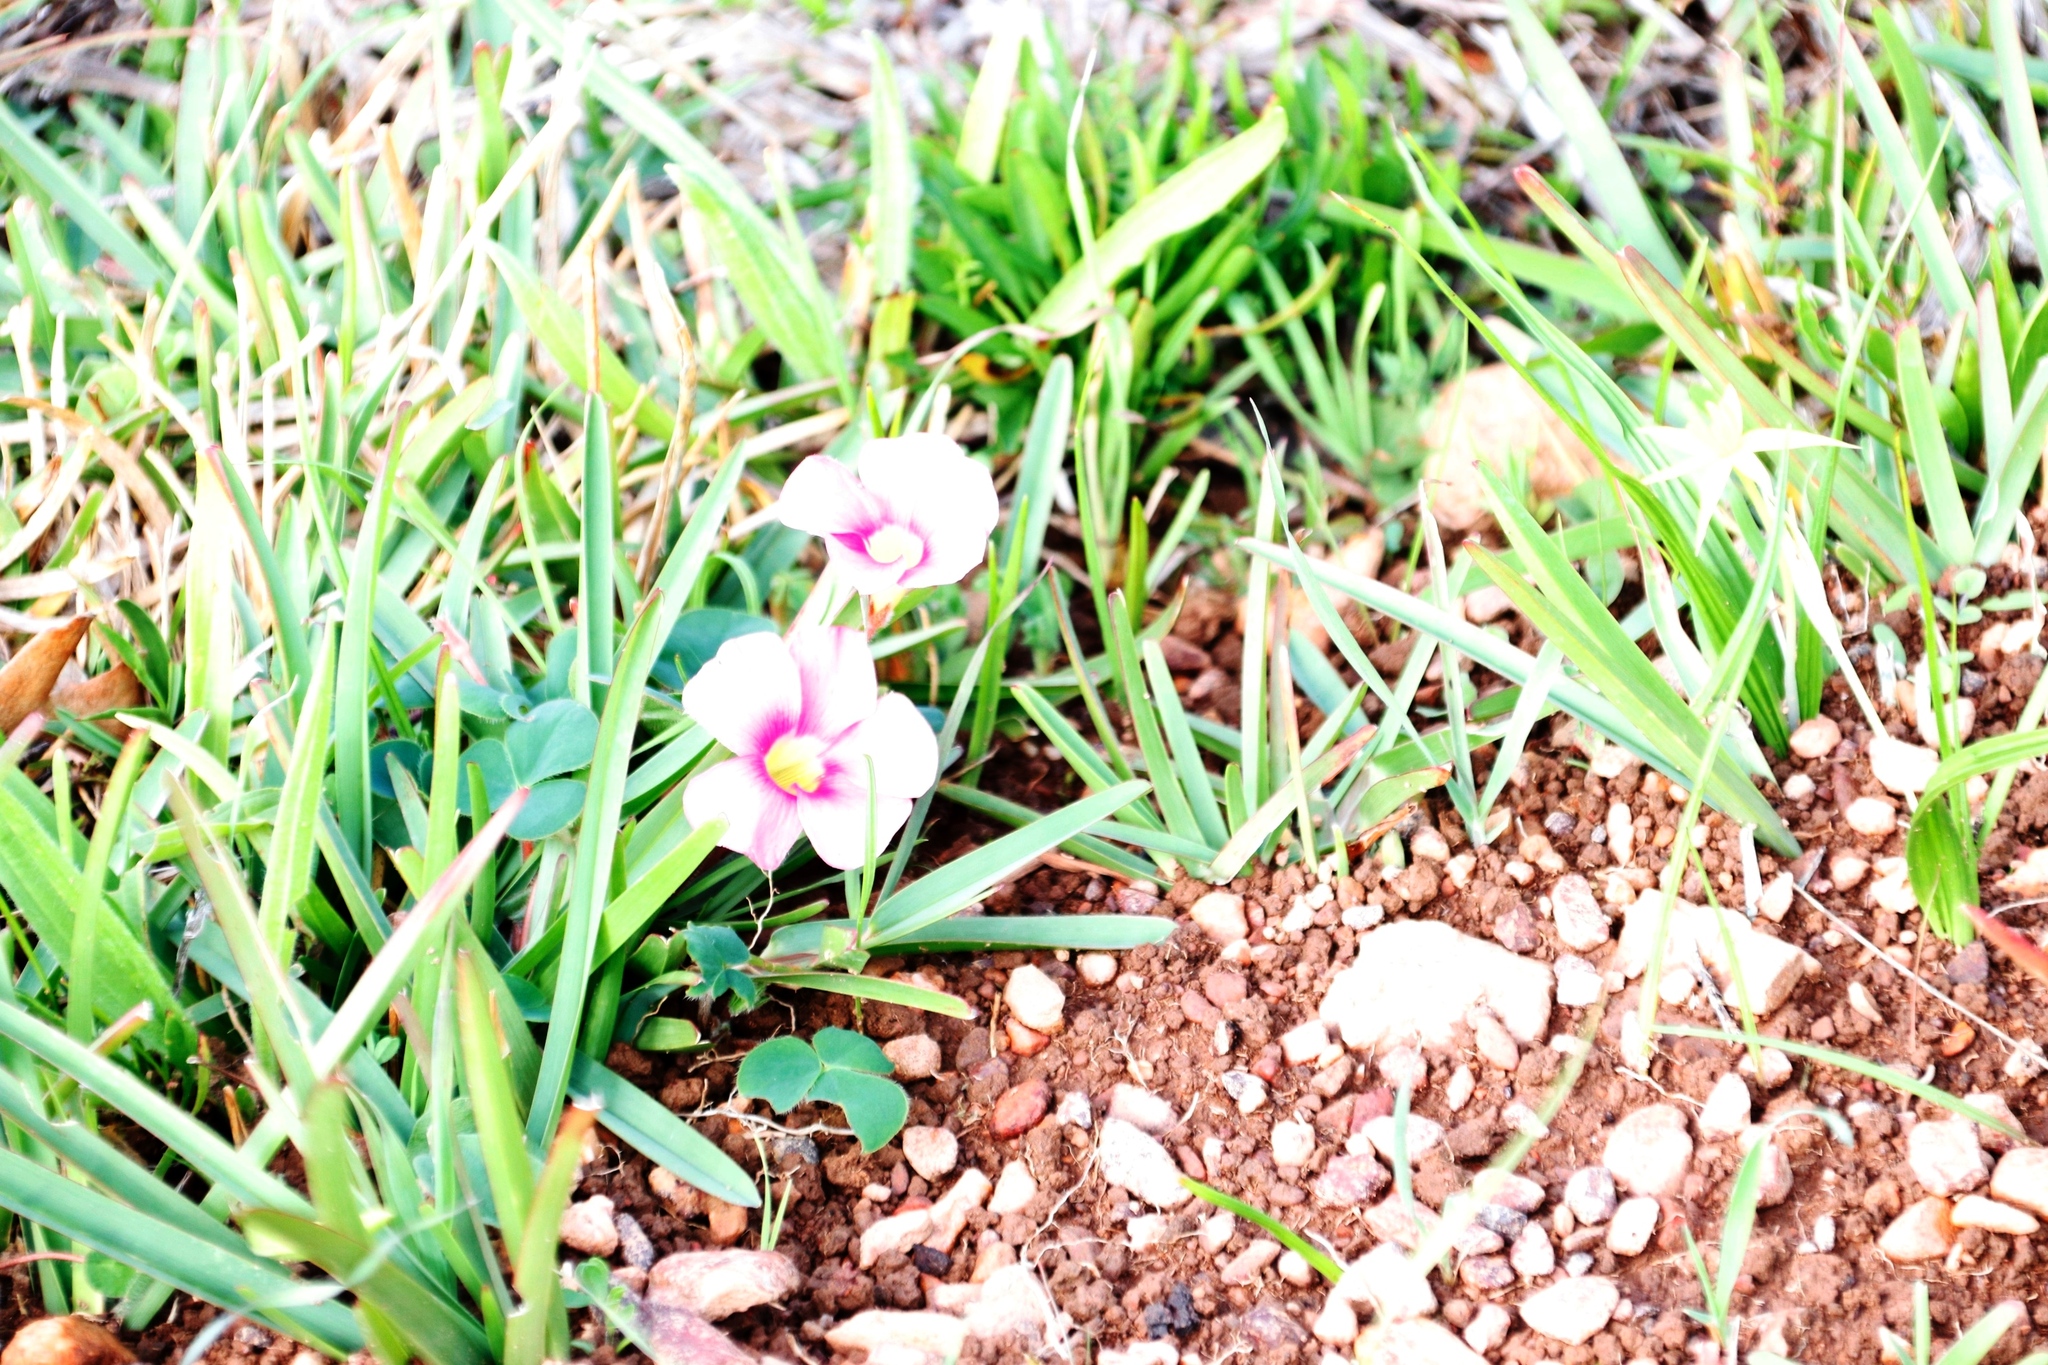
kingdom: Plantae
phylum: Tracheophyta
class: Magnoliopsida
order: Oxalidales
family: Oxalidaceae
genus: Oxalis
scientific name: Oxalis purpurea
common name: Purple woodsorrel
